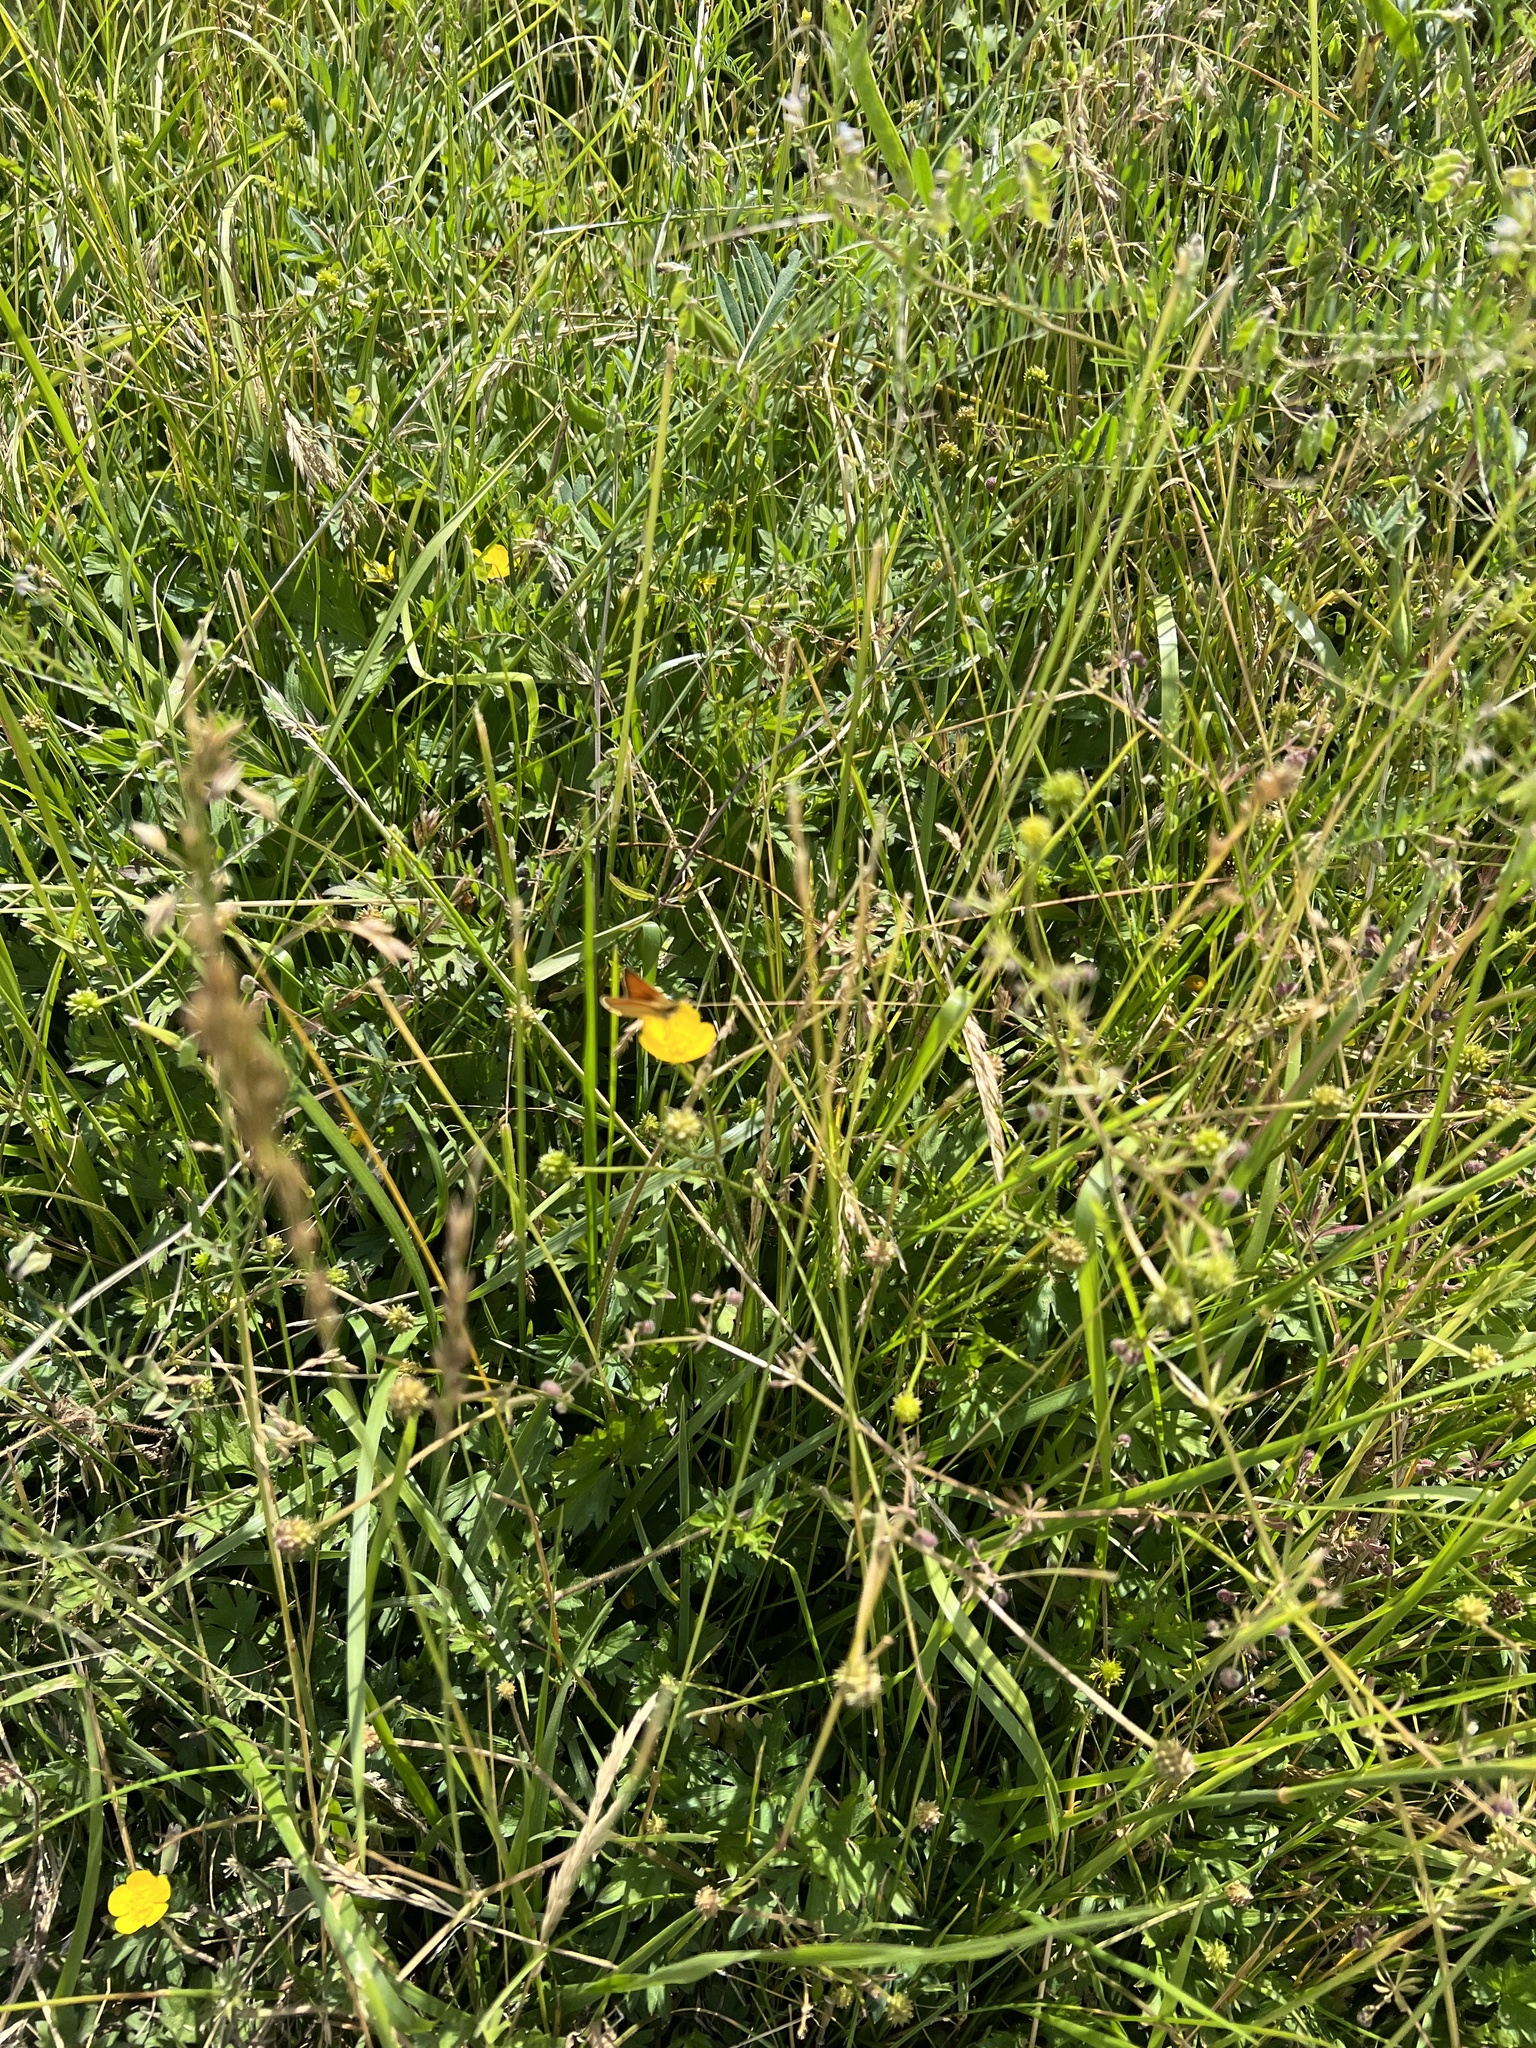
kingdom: Animalia
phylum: Arthropoda
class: Insecta
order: Lepidoptera
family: Hesperiidae
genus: Thymelicus
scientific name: Thymelicus lineola
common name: Essex skipper
